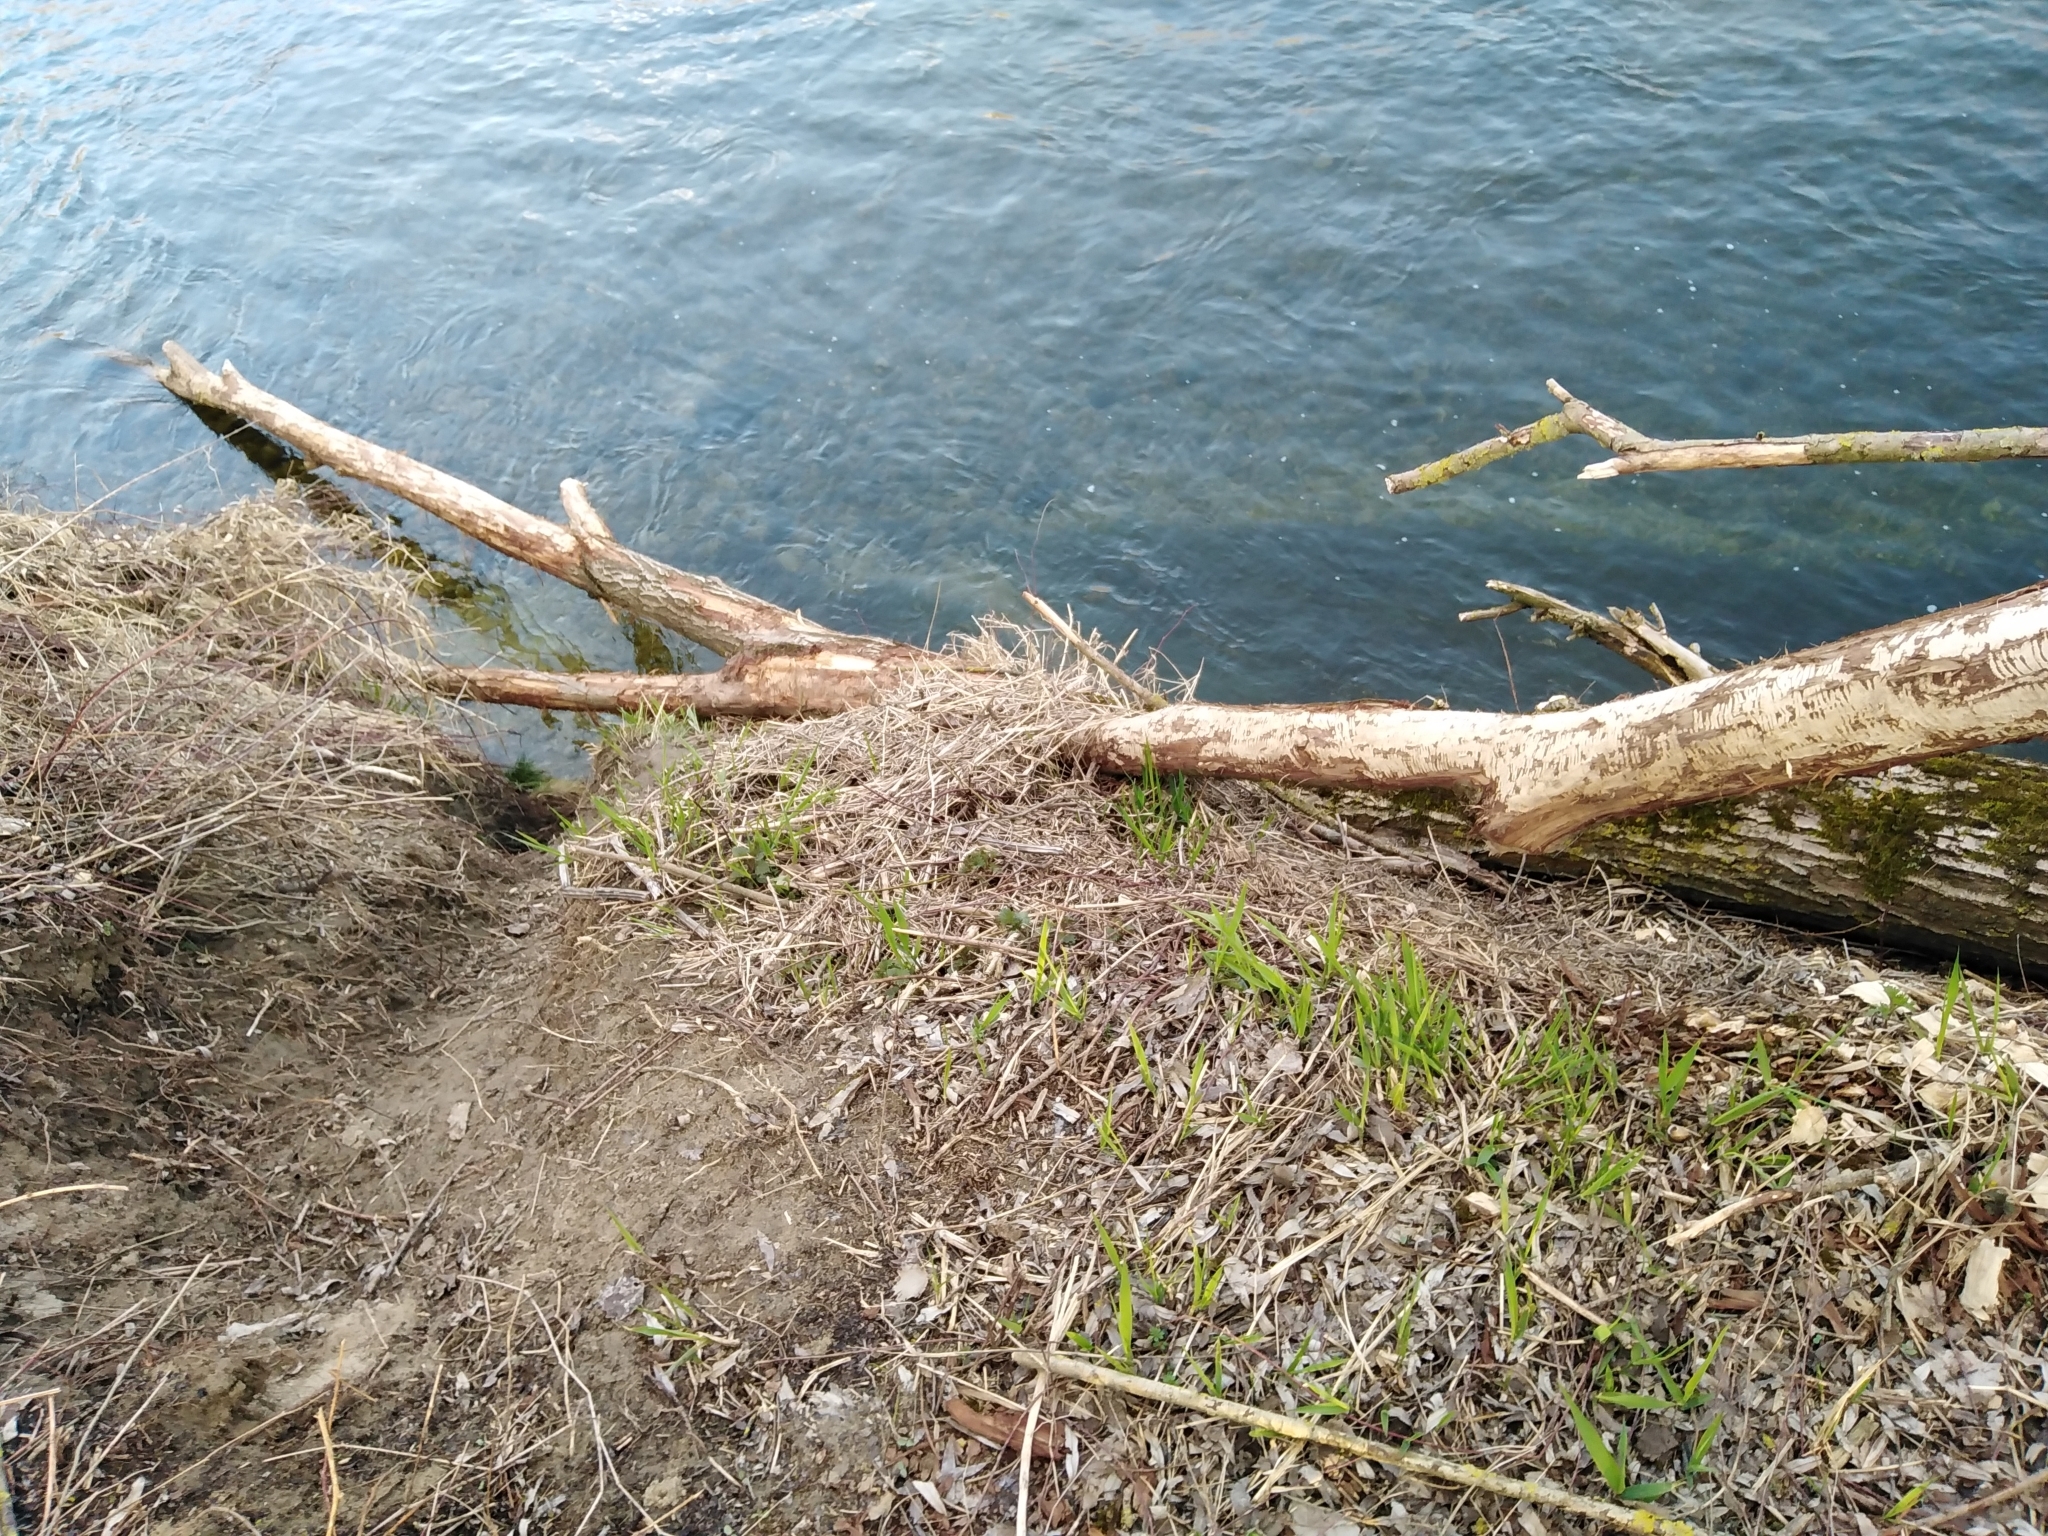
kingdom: Animalia
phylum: Chordata
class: Mammalia
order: Rodentia
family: Castoridae
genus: Castor
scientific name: Castor fiber
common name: Eurasian beaver
